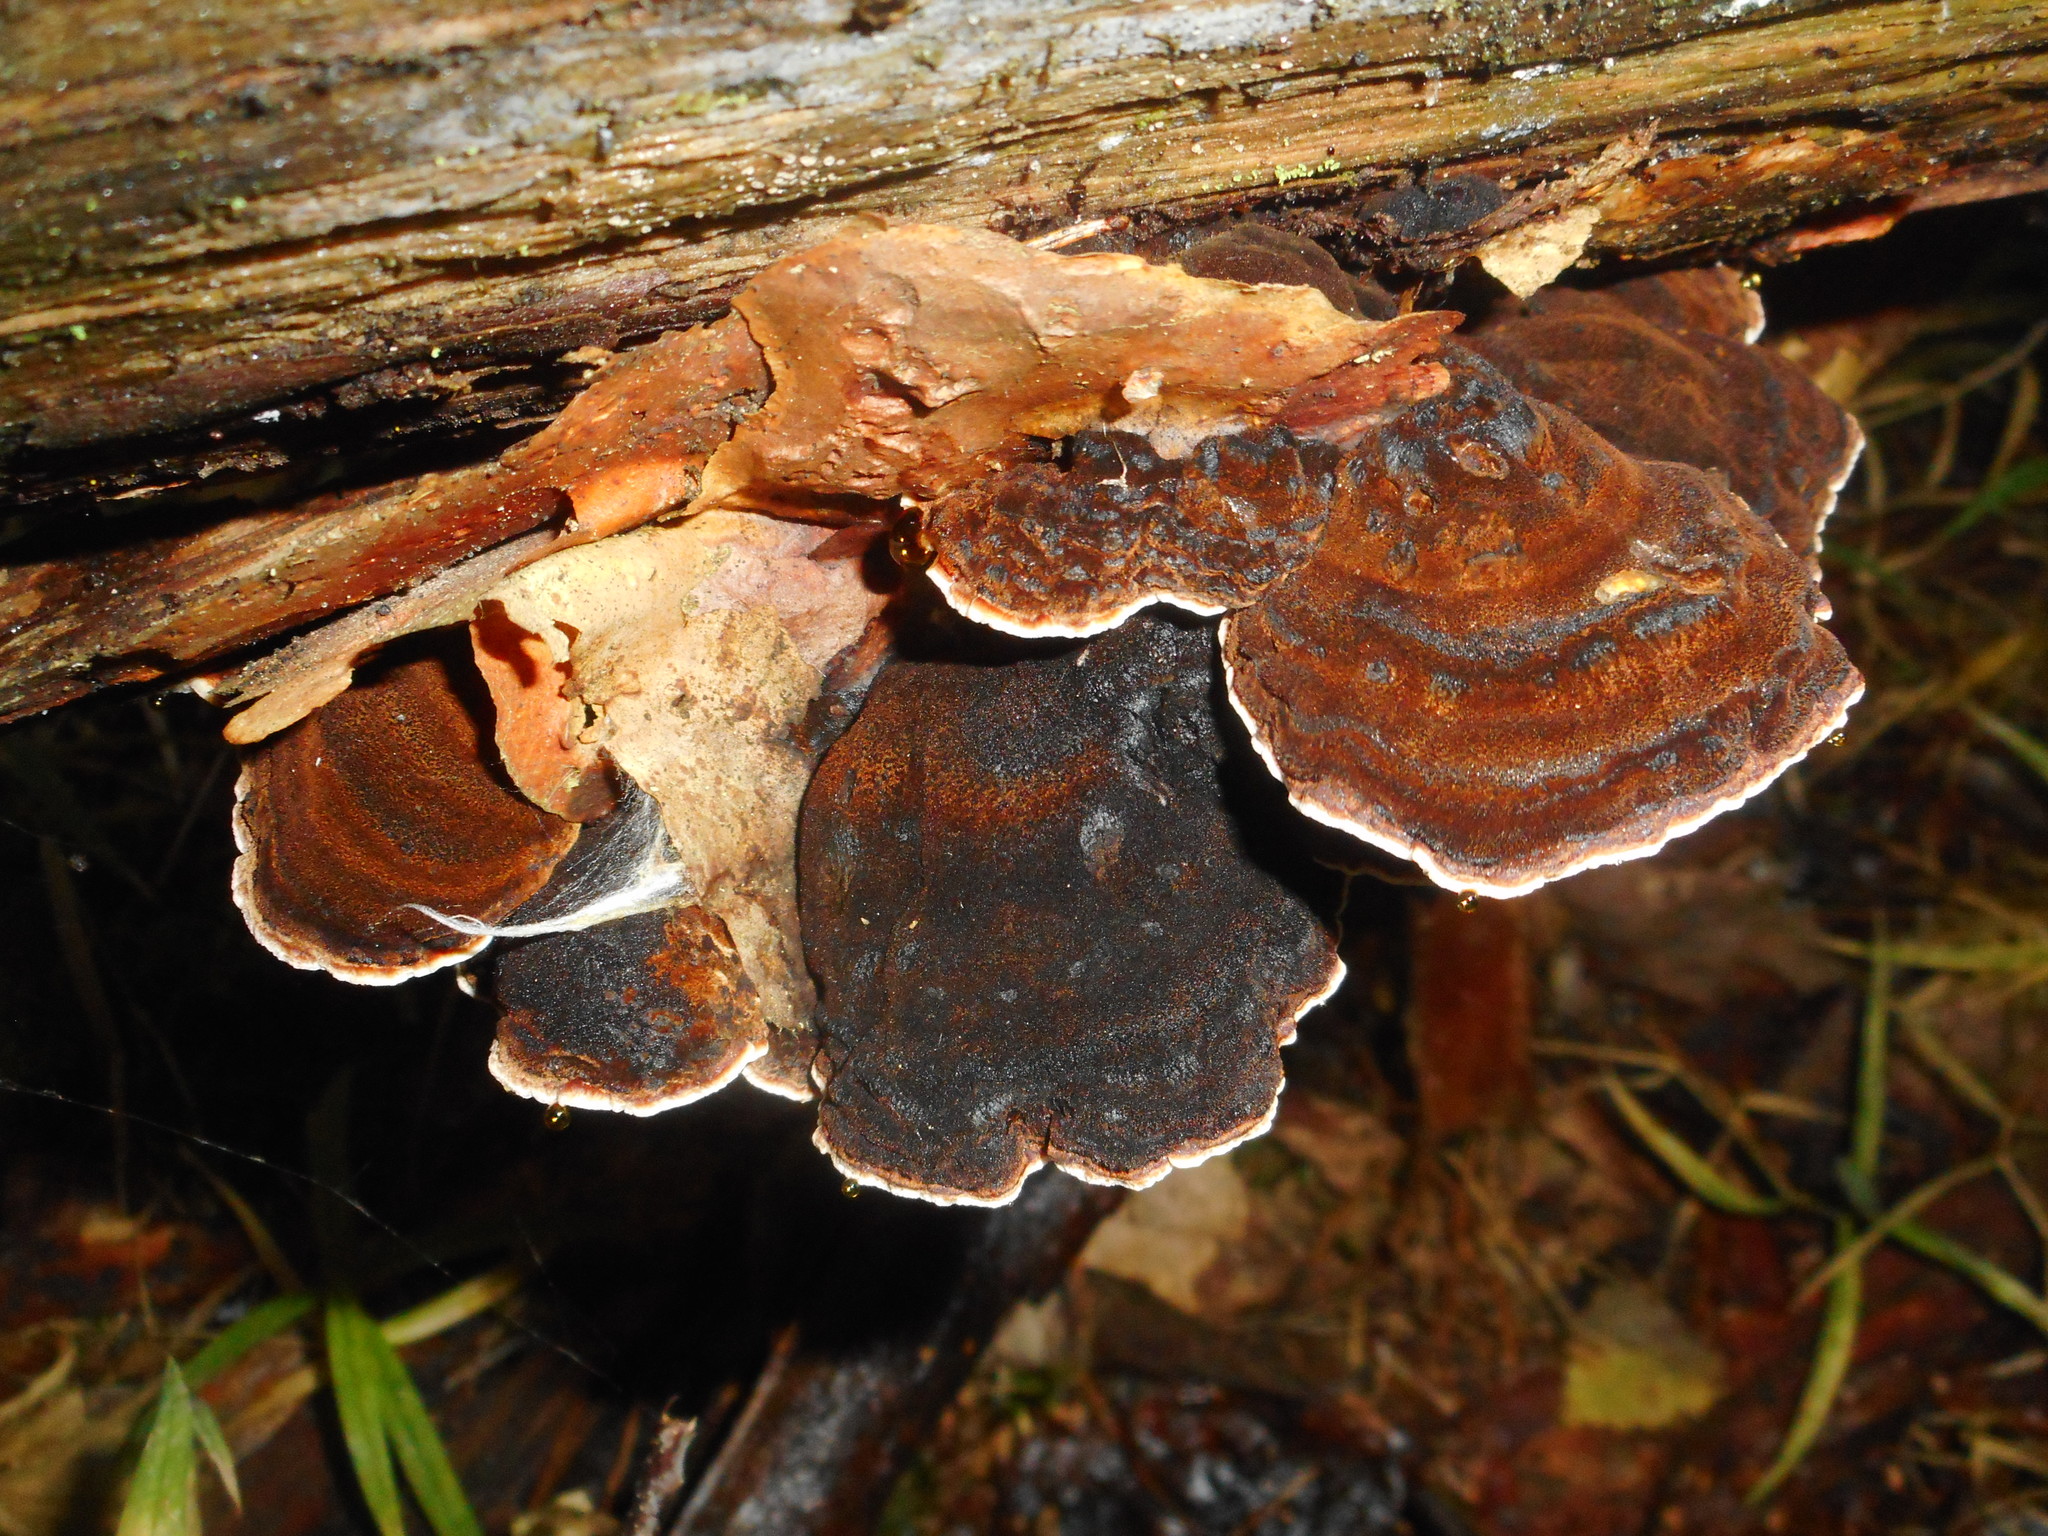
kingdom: Fungi
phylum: Basidiomycota
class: Agaricomycetes
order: Polyporales
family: Ischnodermataceae
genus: Ischnoderma
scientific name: Ischnoderma benzoinum
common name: Benzoin bracket
